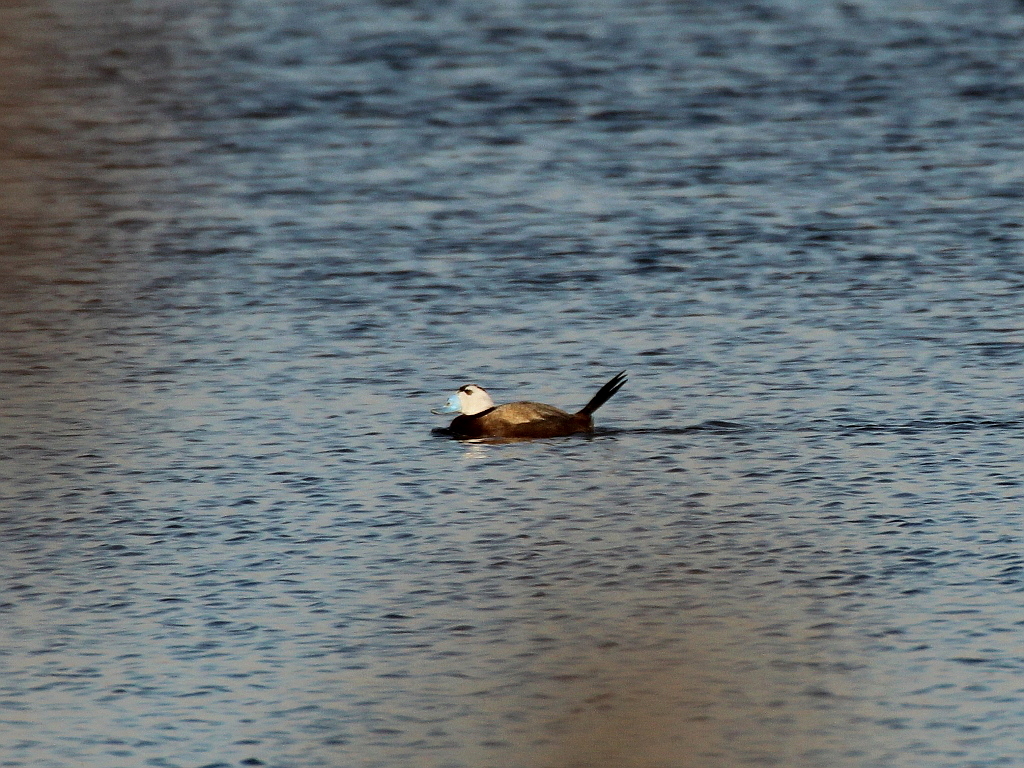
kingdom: Animalia
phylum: Chordata
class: Aves
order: Anseriformes
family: Anatidae
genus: Oxyura
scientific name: Oxyura leucocephala
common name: White-headed duck
